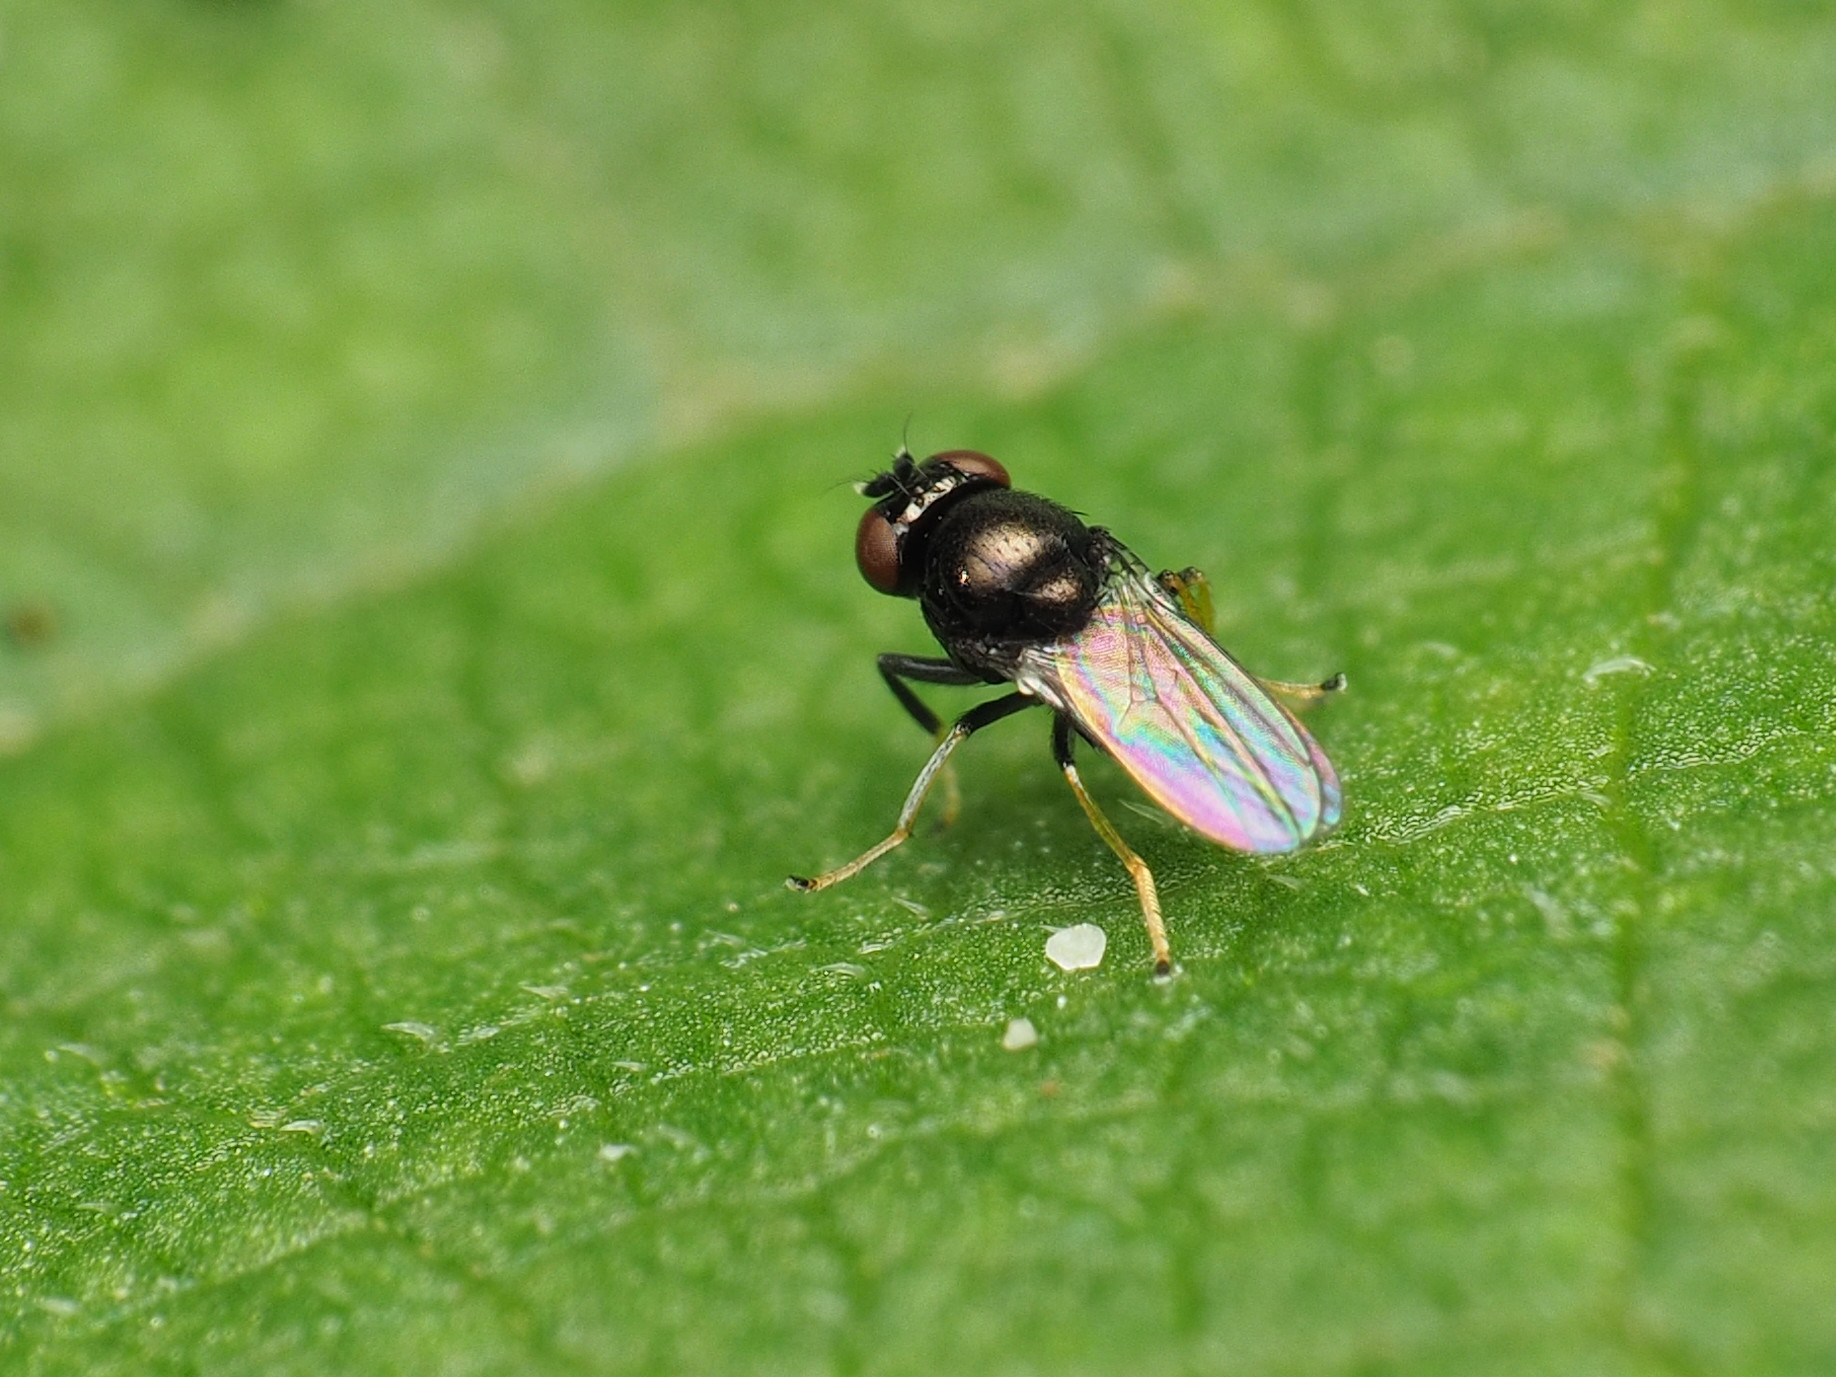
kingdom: Animalia
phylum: Arthropoda
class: Insecta
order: Diptera
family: Ephydridae
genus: Athyroglossa
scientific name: Athyroglossa glaphyropus
